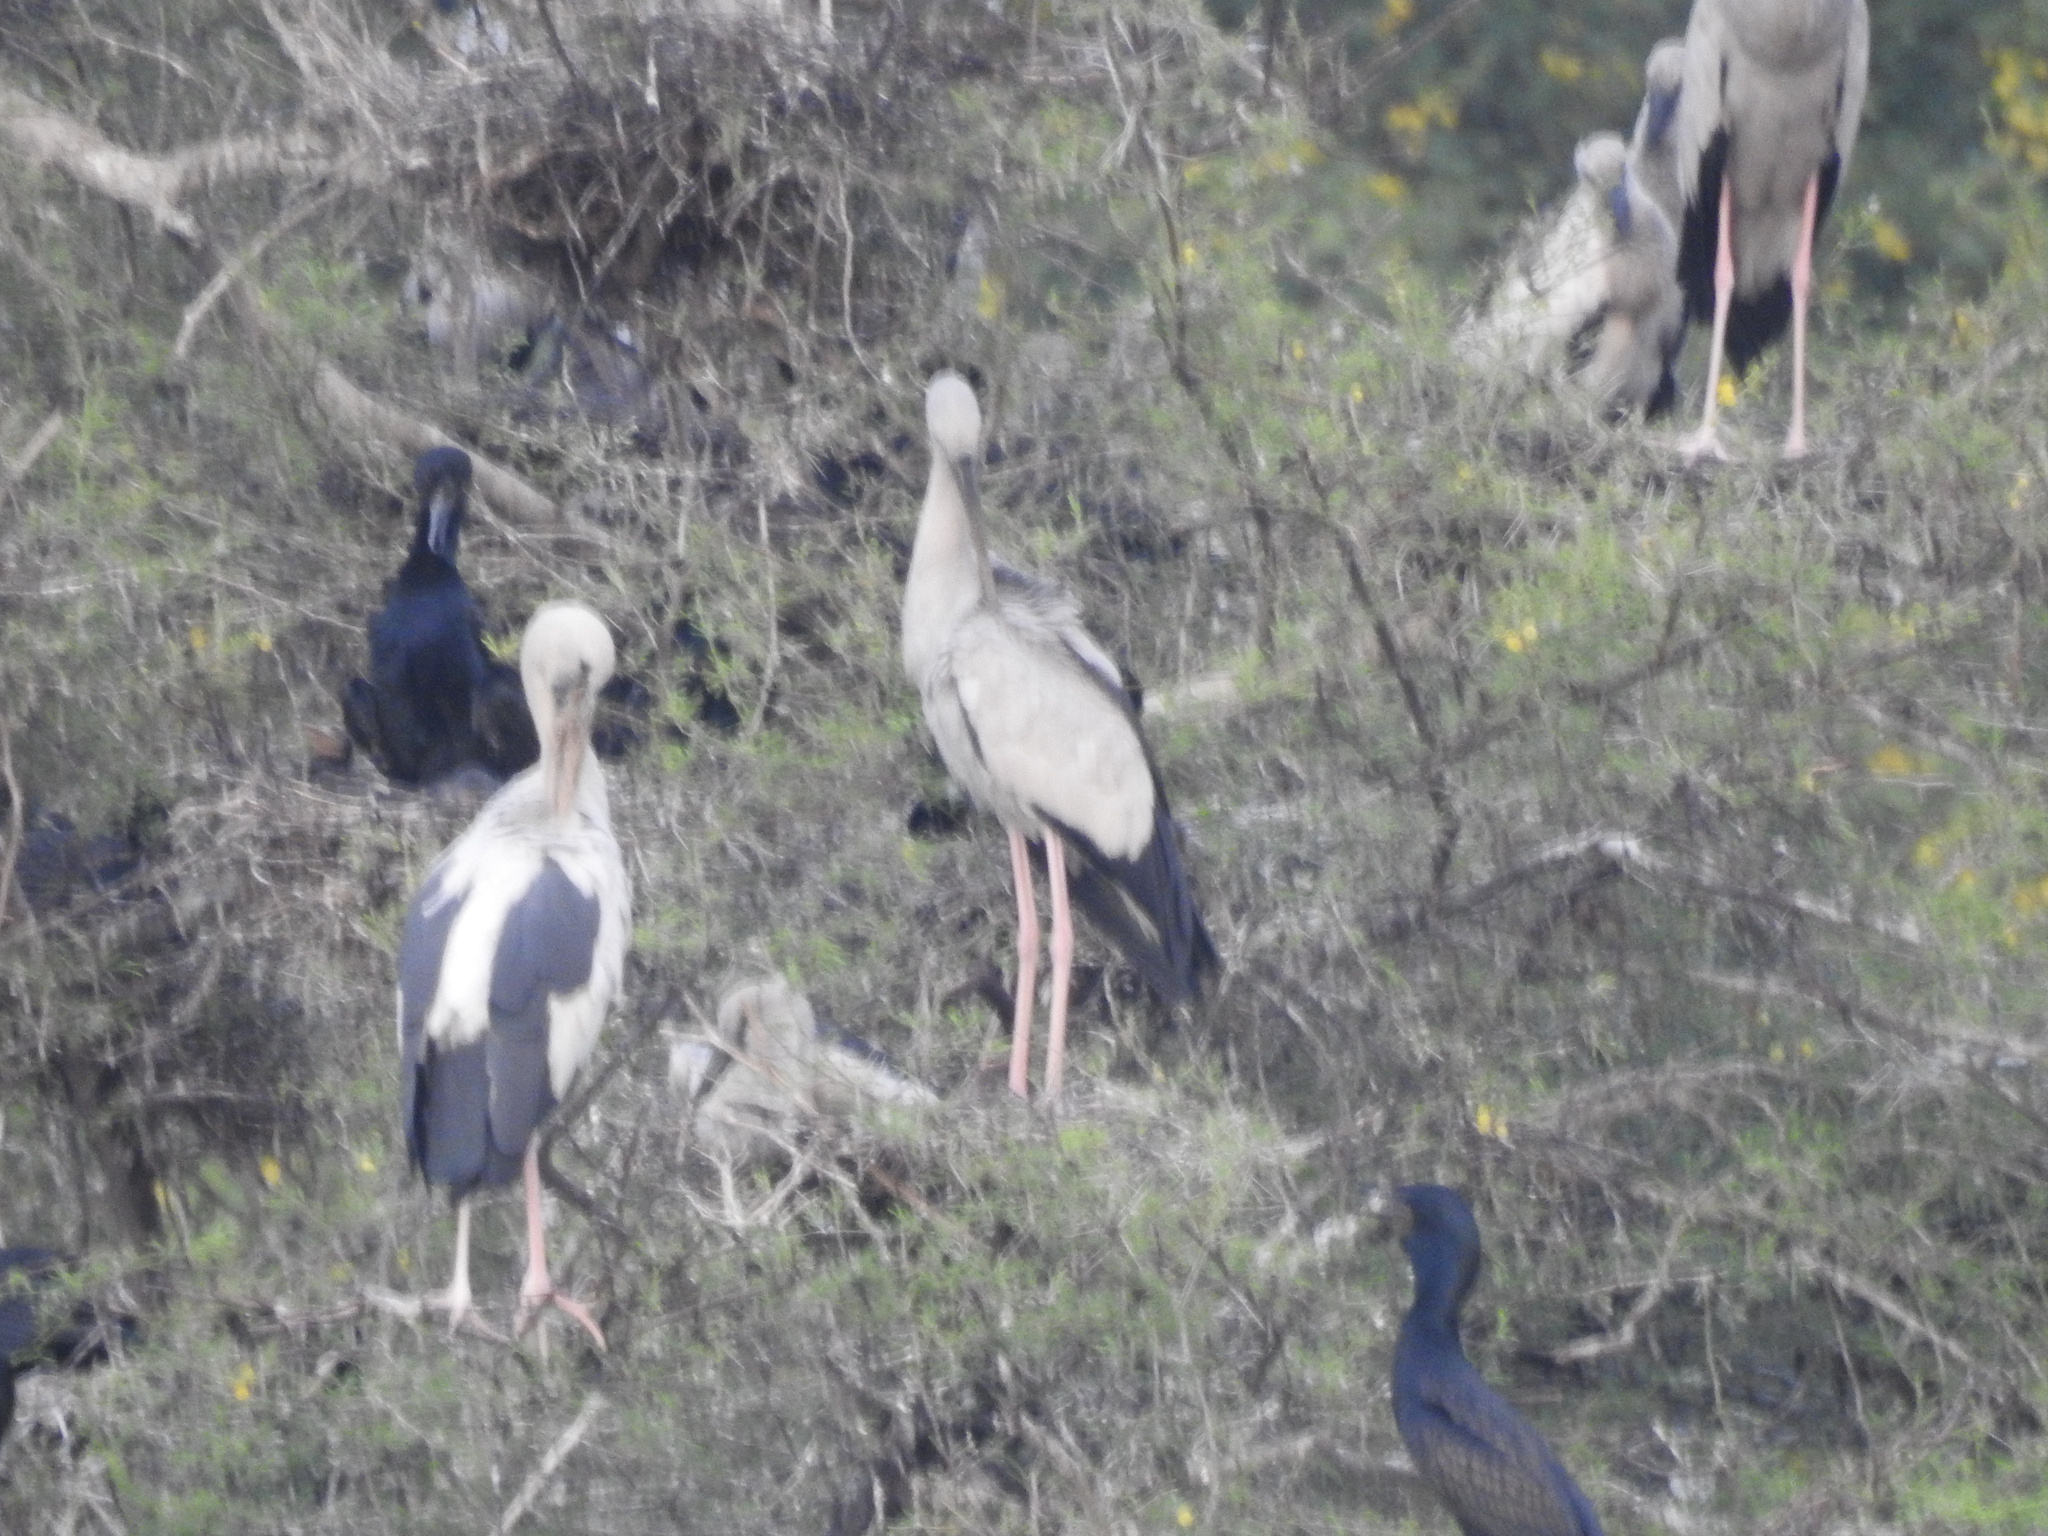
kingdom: Animalia
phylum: Chordata
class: Aves
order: Ciconiiformes
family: Ciconiidae
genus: Anastomus
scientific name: Anastomus oscitans
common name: Asian openbill
